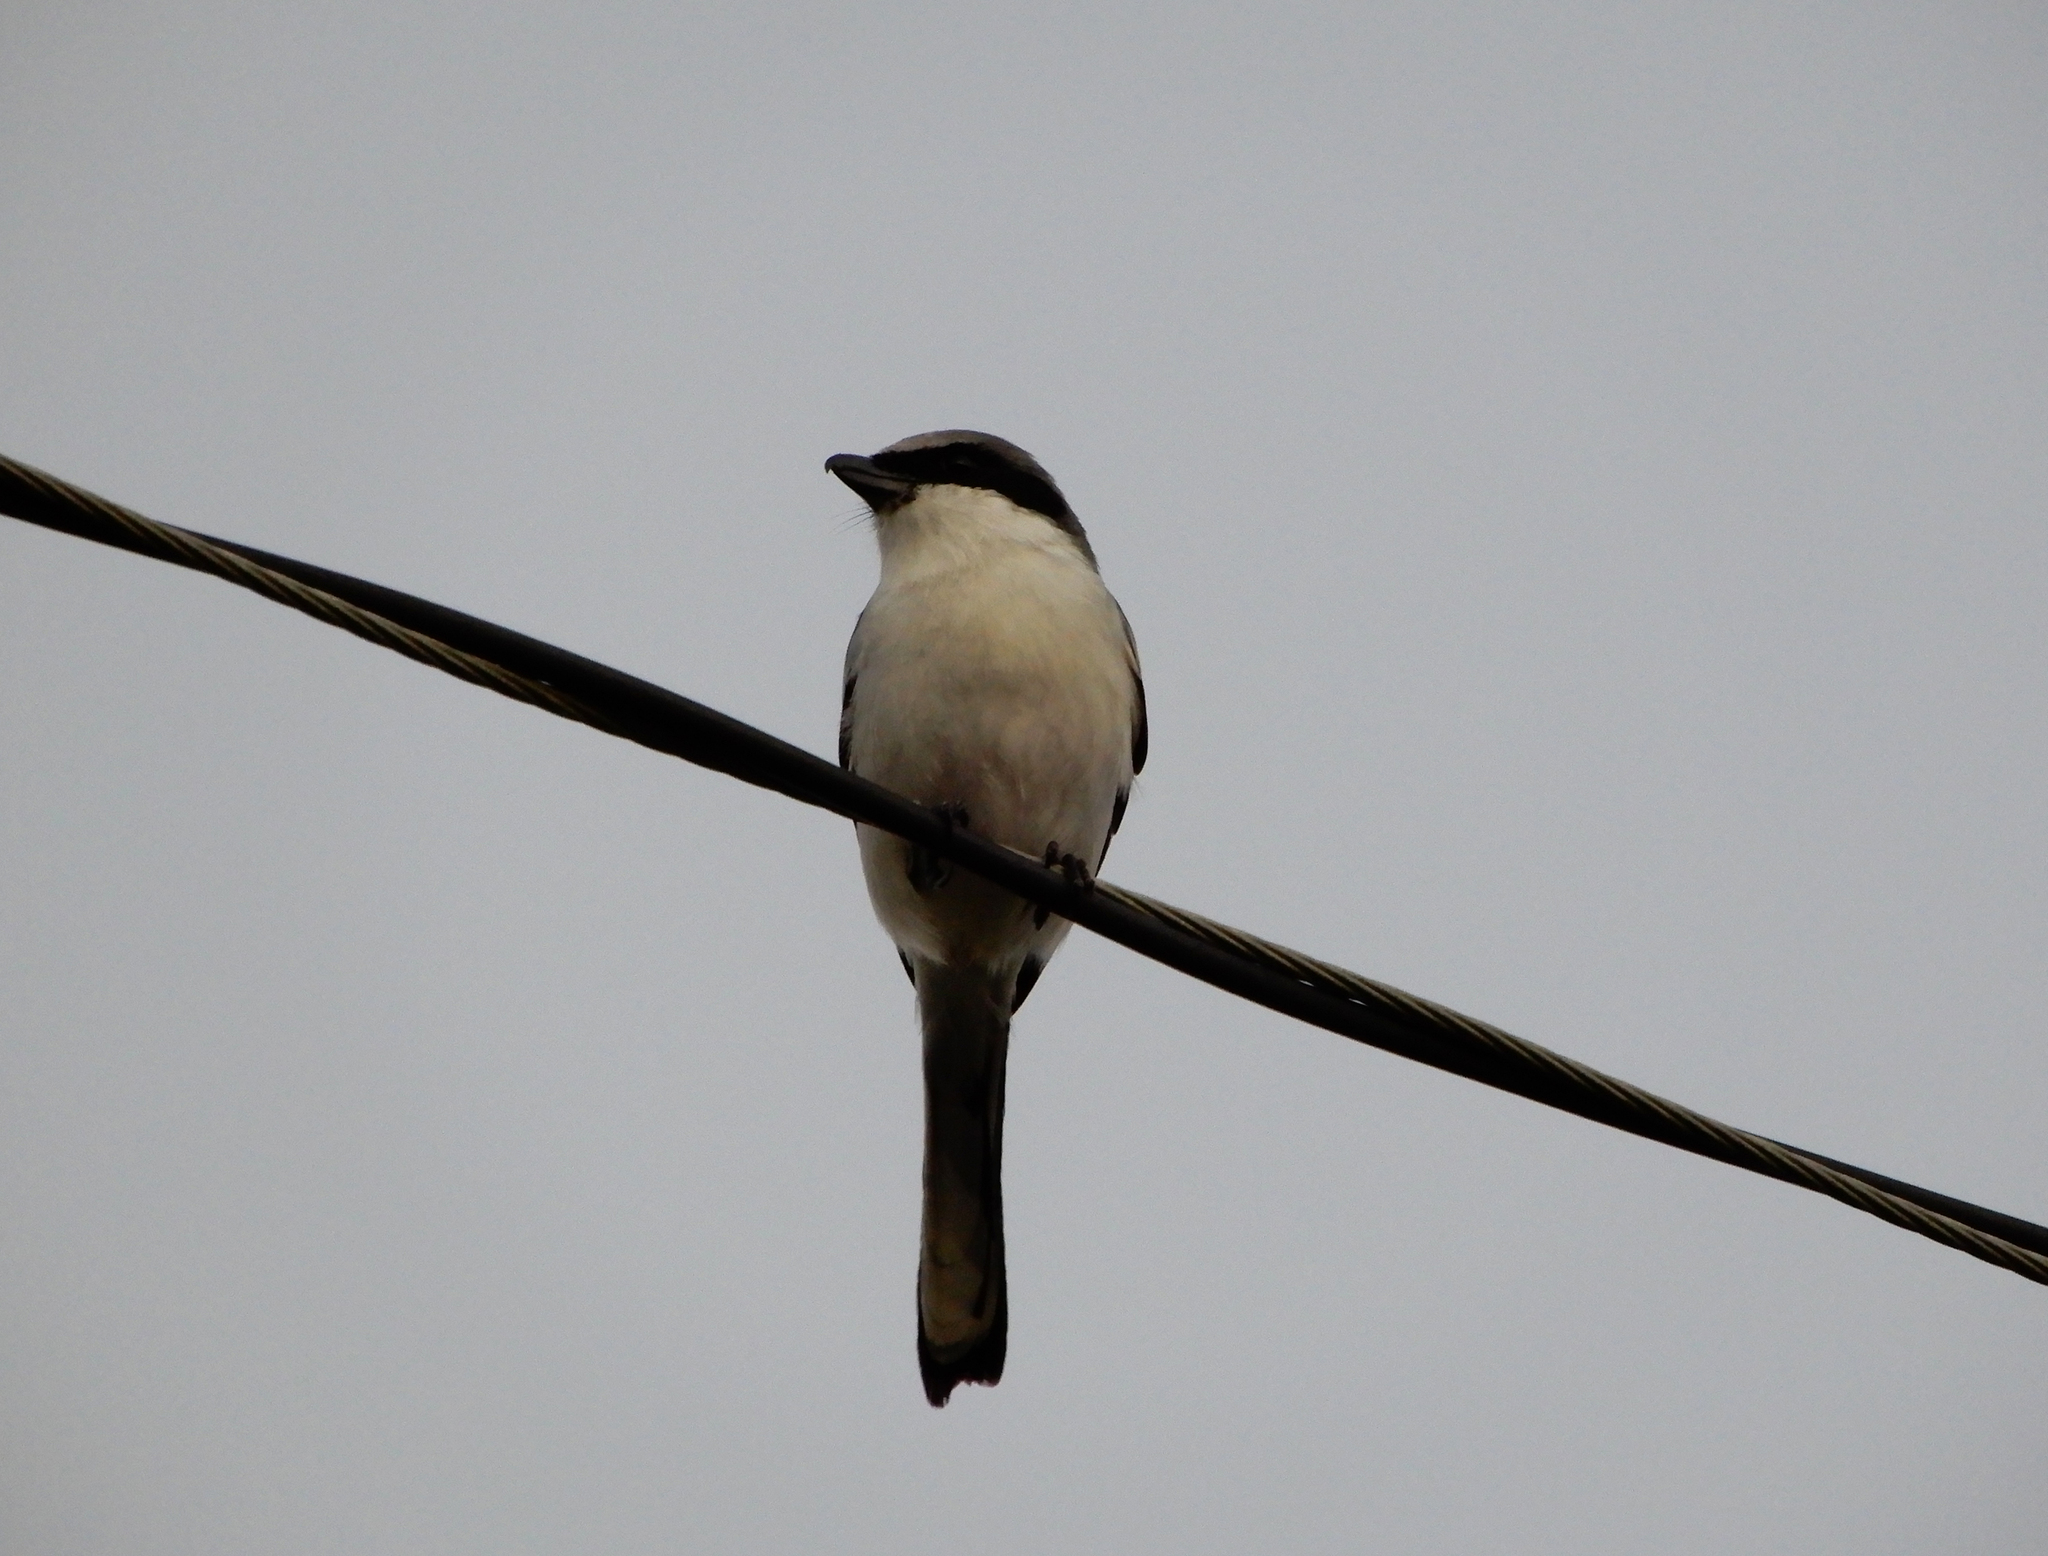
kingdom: Animalia
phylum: Chordata
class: Aves
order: Passeriformes
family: Laniidae
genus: Lanius
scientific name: Lanius ludovicianus
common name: Loggerhead shrike
